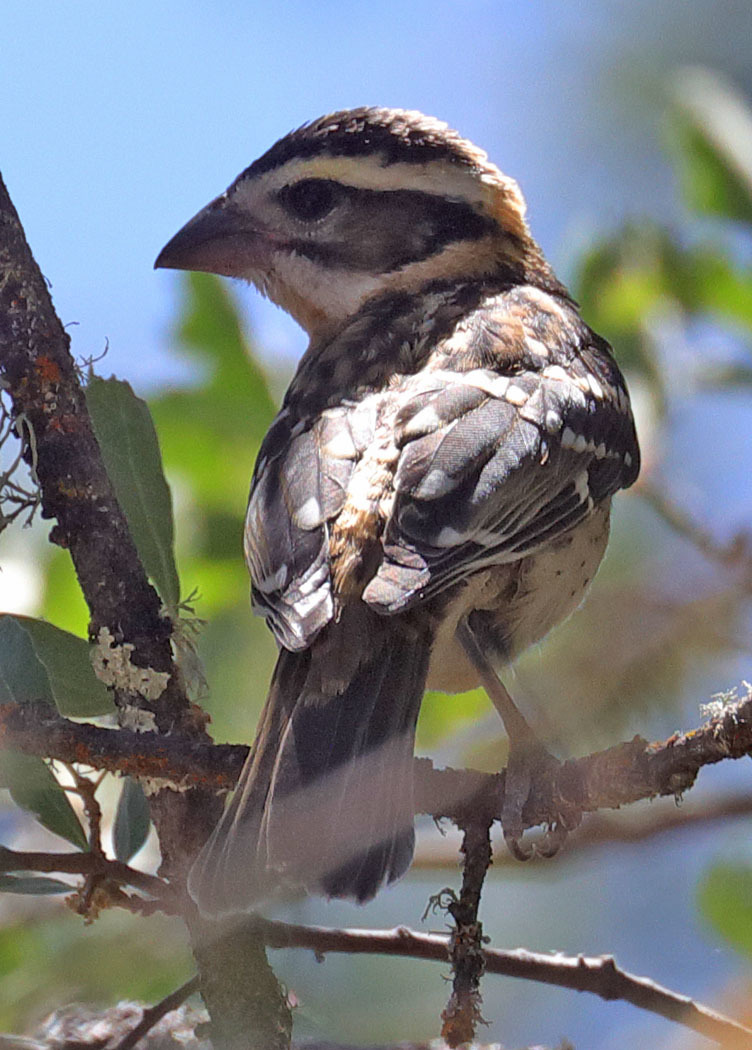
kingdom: Animalia
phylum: Chordata
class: Aves
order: Passeriformes
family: Cardinalidae
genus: Pheucticus
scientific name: Pheucticus melanocephalus
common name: Black-headed grosbeak
